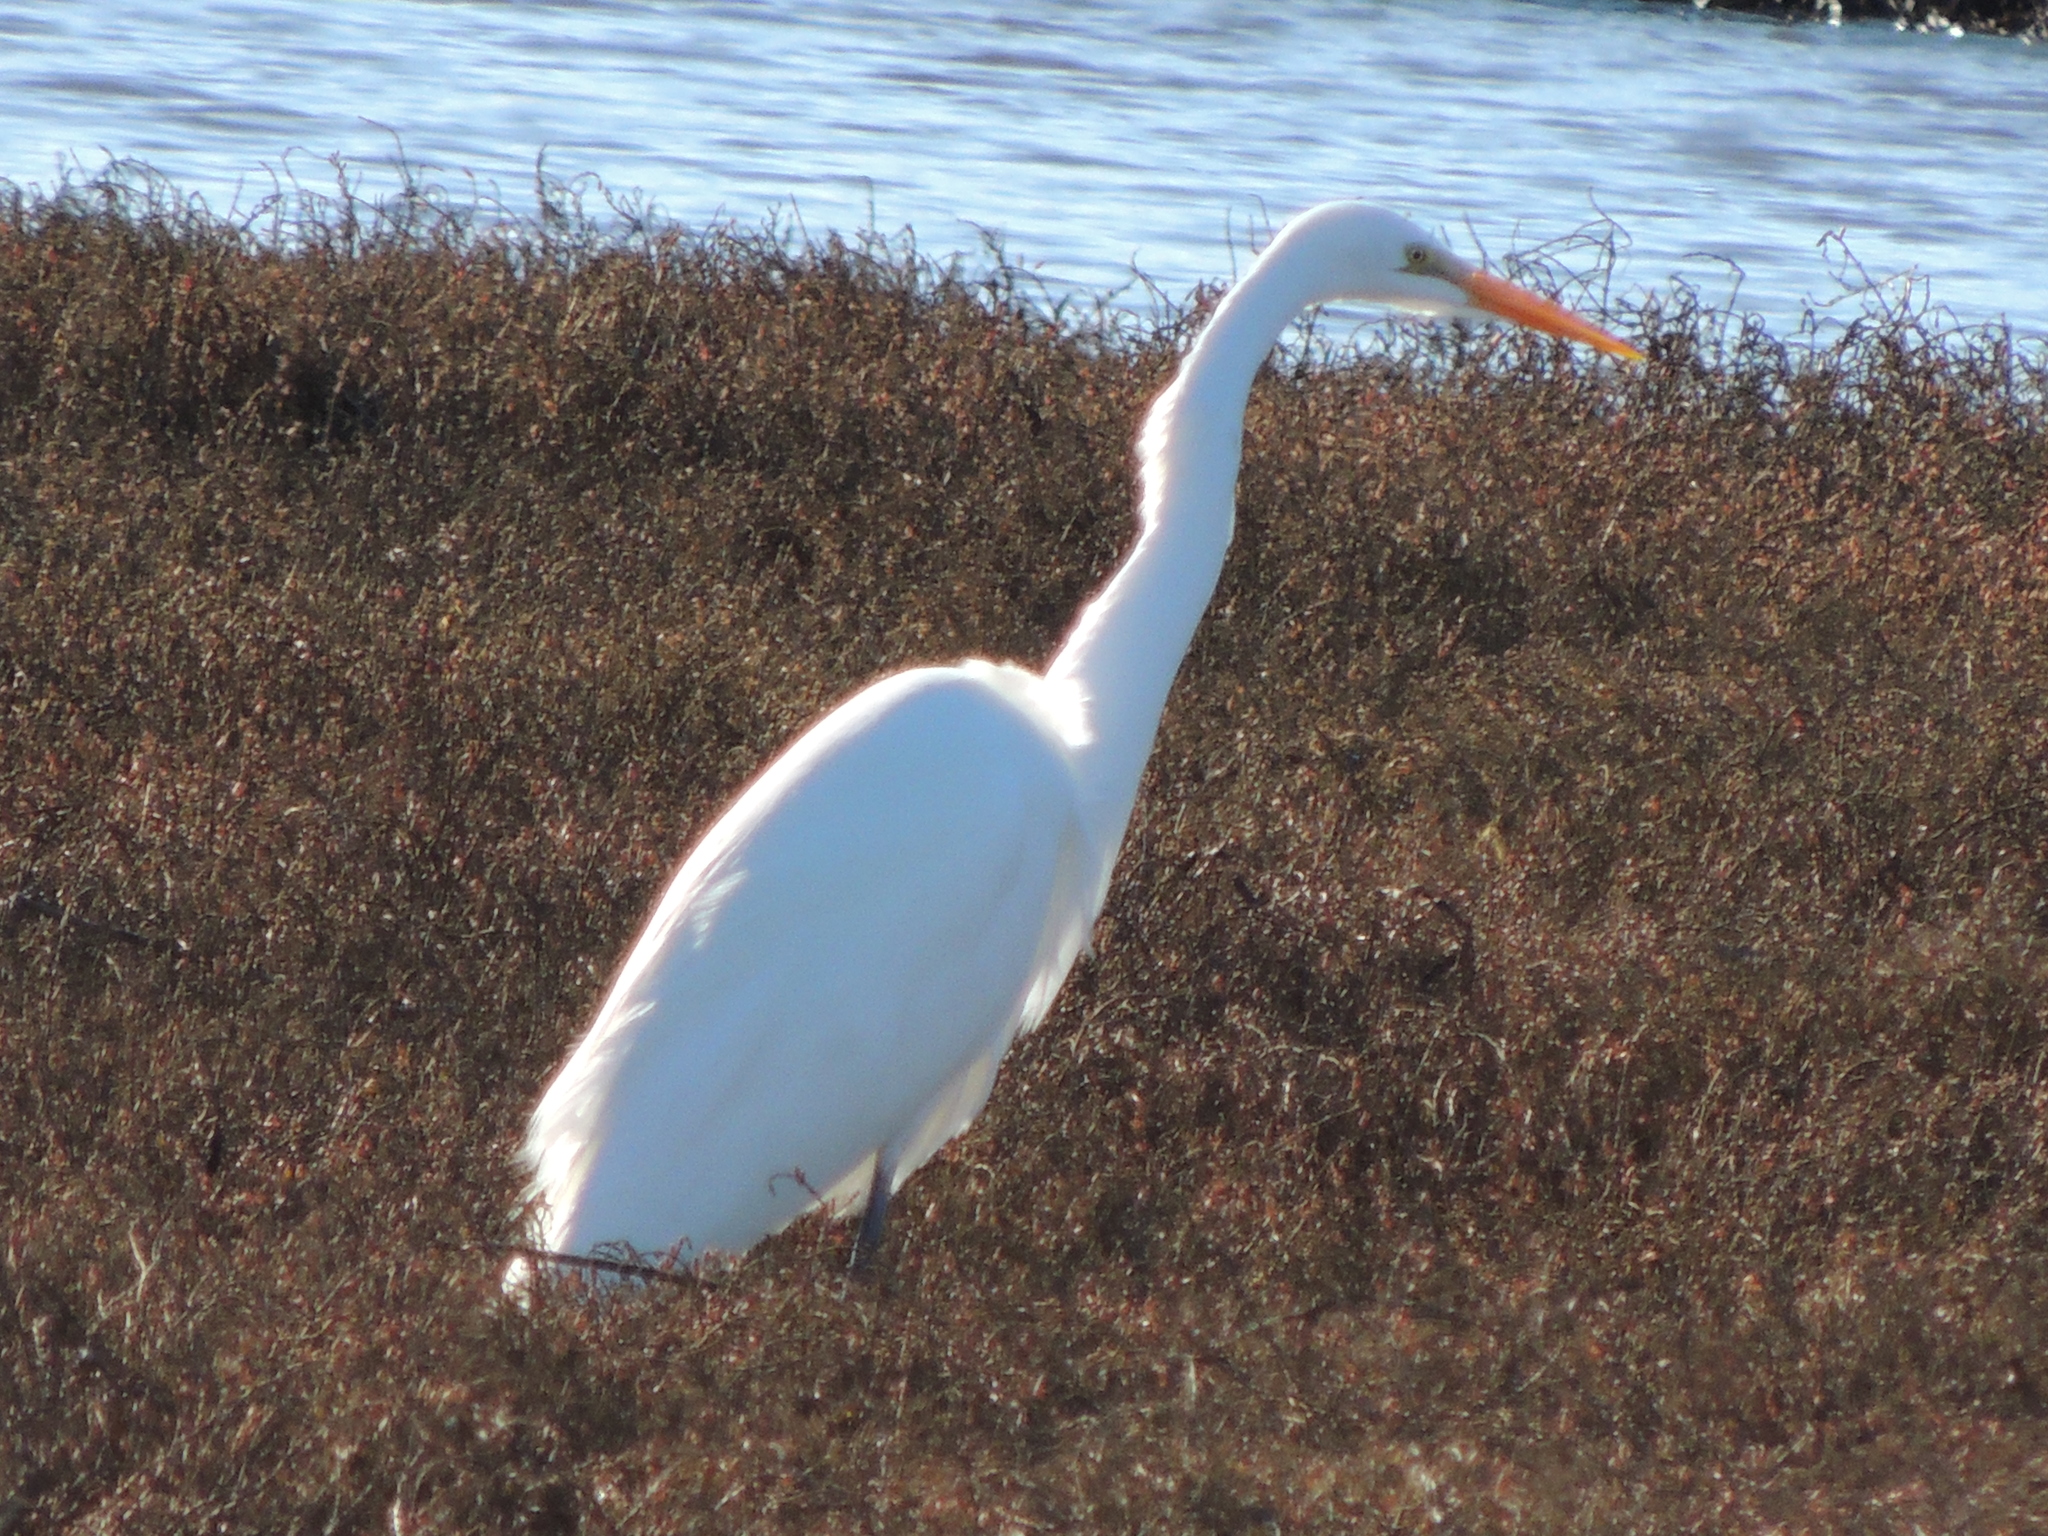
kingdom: Animalia
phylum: Chordata
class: Aves
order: Pelecaniformes
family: Ardeidae
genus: Ardea
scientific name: Ardea alba
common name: Great egret
